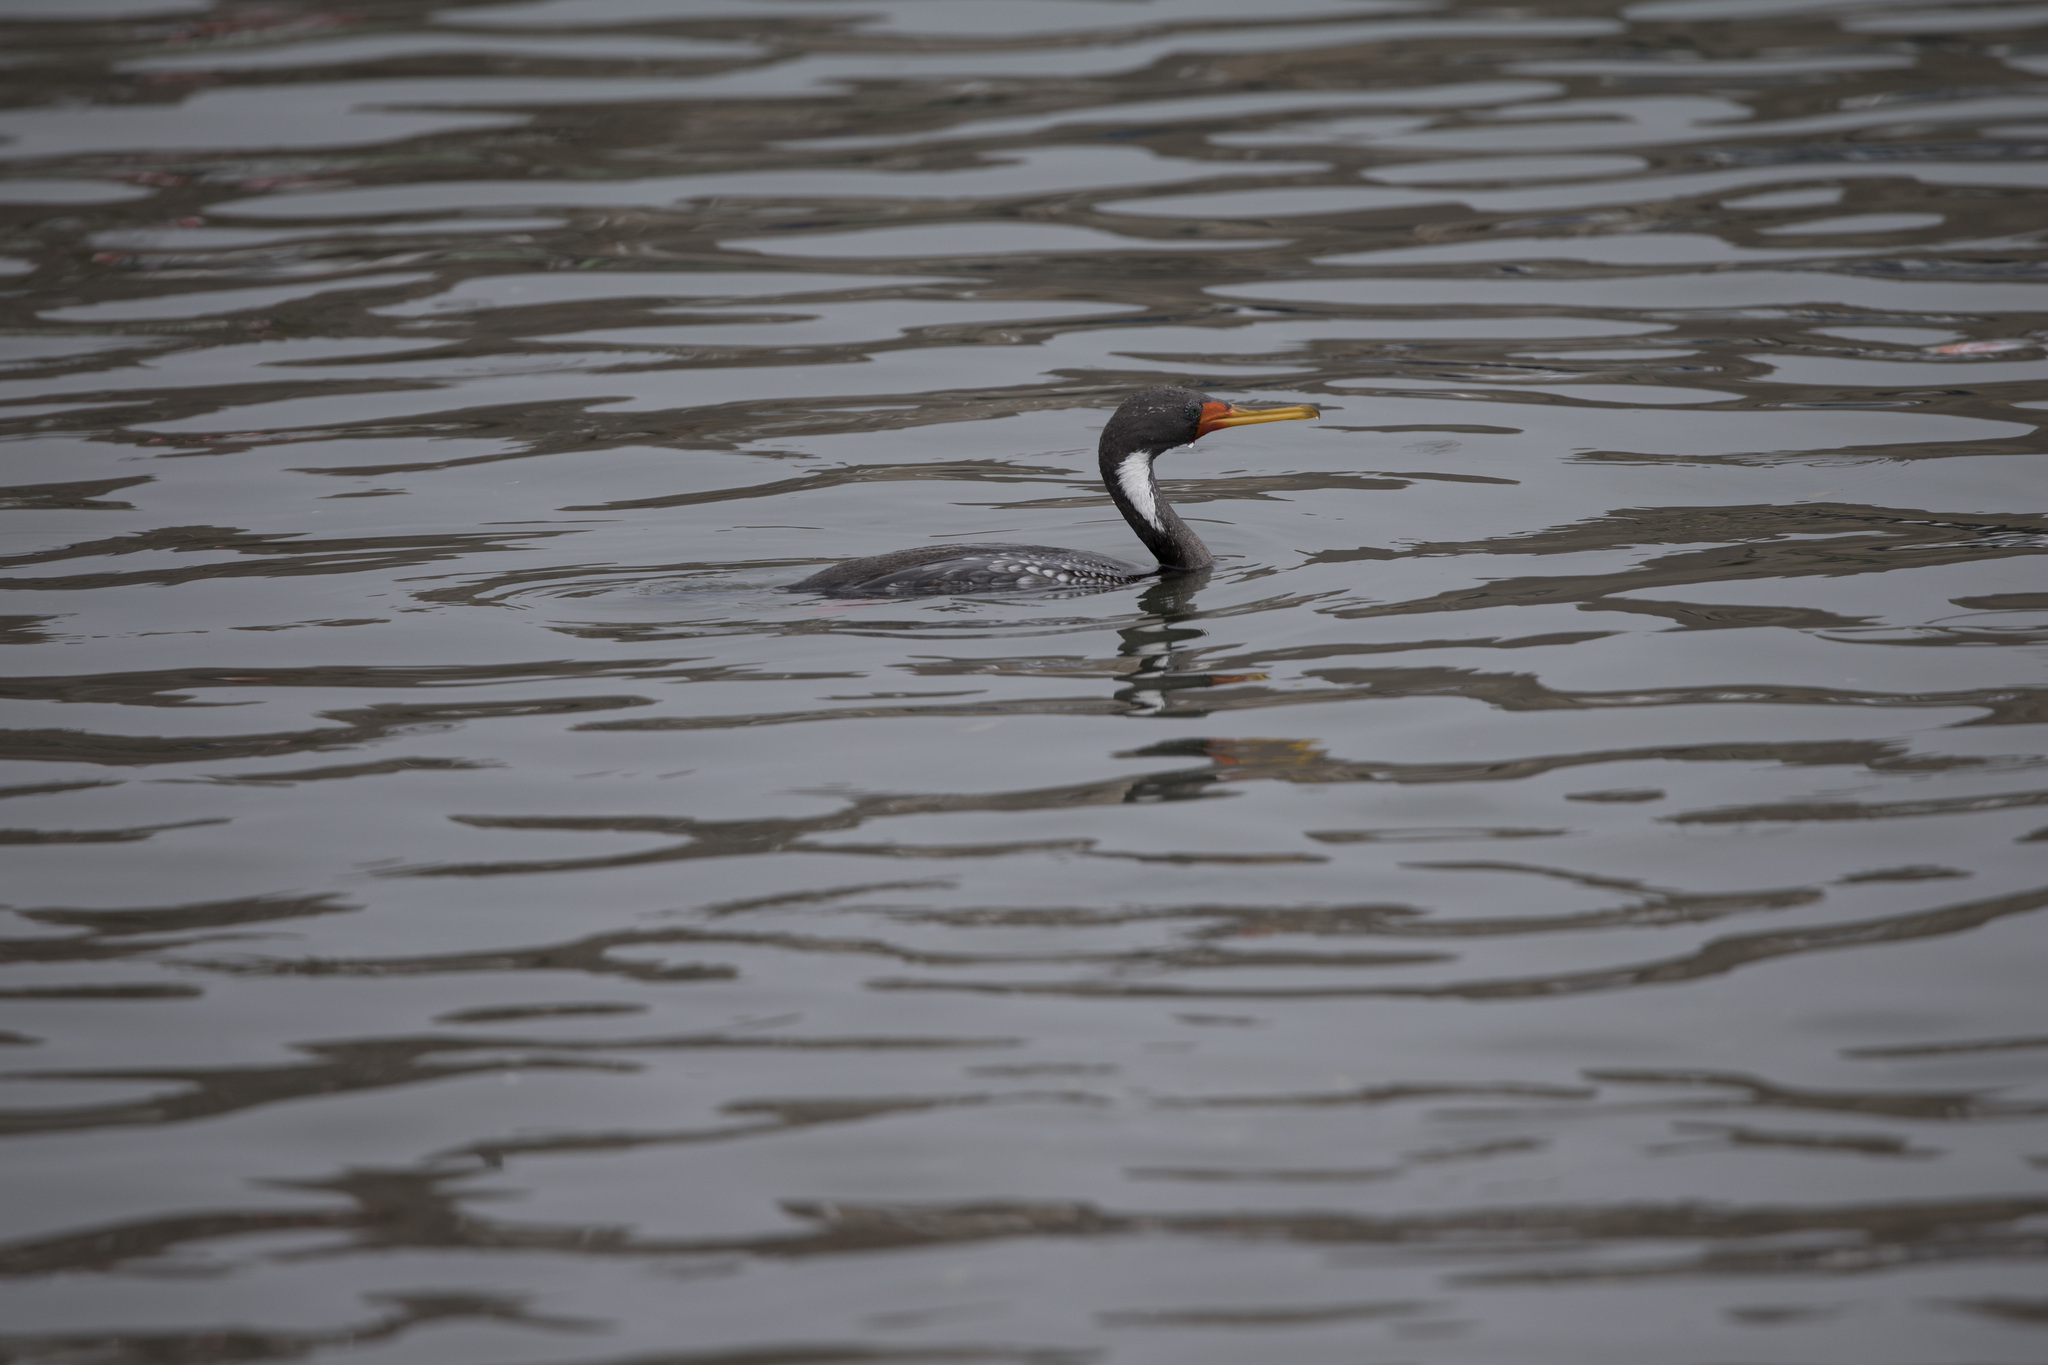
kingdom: Animalia
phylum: Chordata
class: Aves
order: Suliformes
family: Phalacrocoracidae
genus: Phalacrocorax
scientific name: Phalacrocorax gaimardi
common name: Red-legged cormorant
